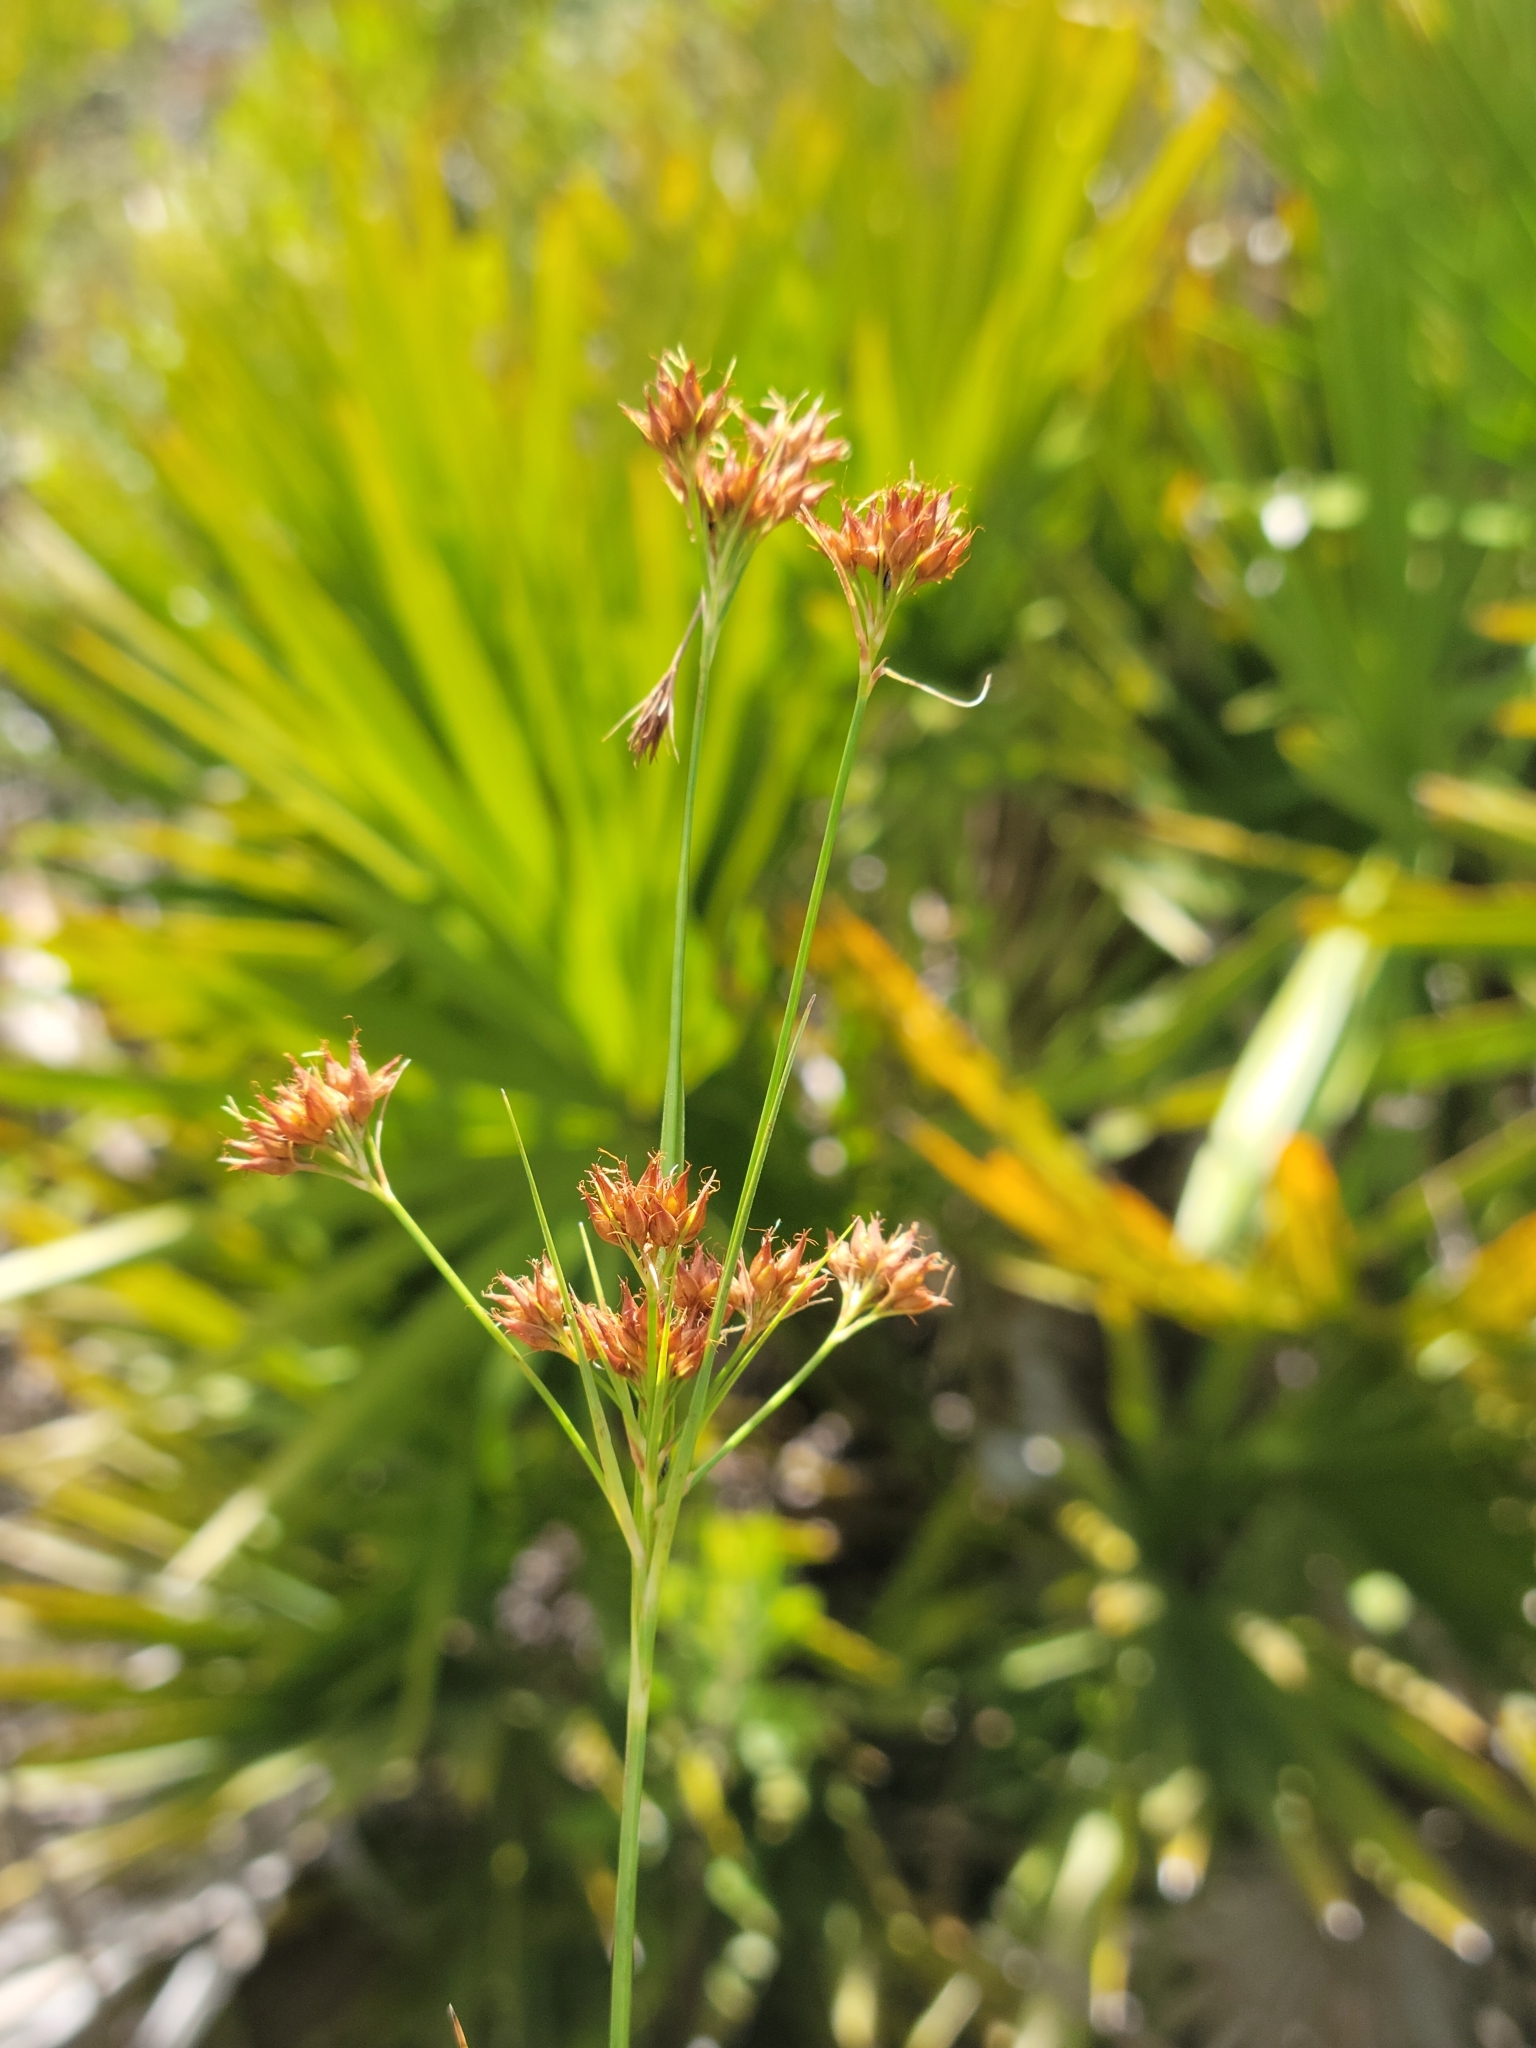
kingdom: Plantae
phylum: Tracheophyta
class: Liliopsida
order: Poales
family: Cyperaceae
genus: Rhynchospora
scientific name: Rhynchospora fascicularis
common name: Fascicled beak sedge
